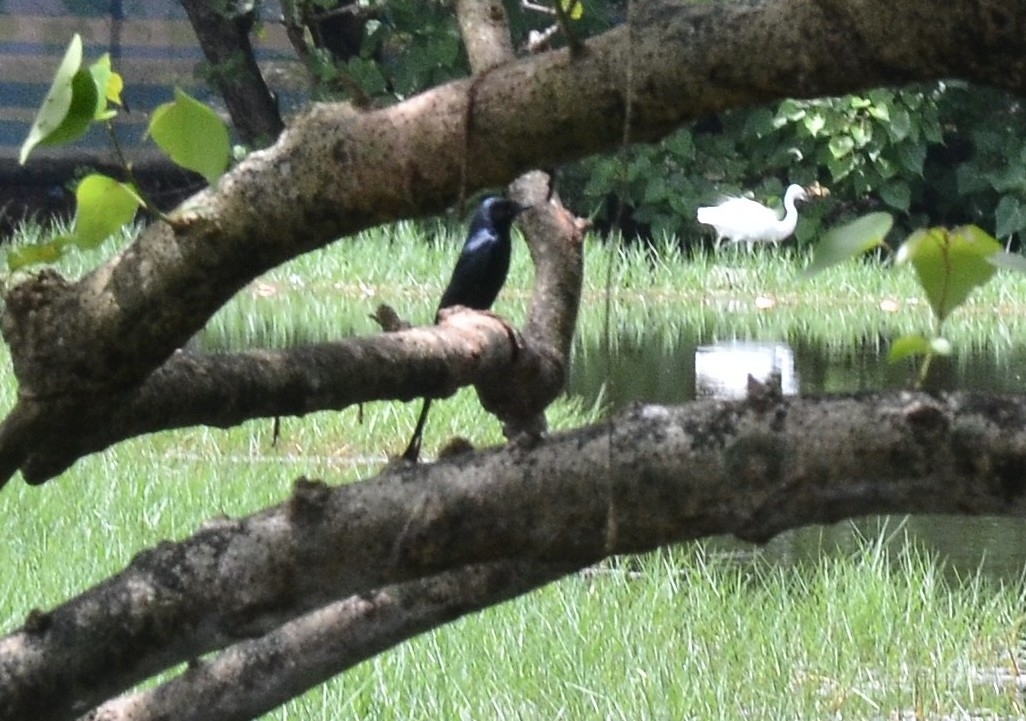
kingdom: Animalia
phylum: Chordata
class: Aves
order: Passeriformes
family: Dicruridae
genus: Dicrurus
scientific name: Dicrurus macrocercus
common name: Black drongo
